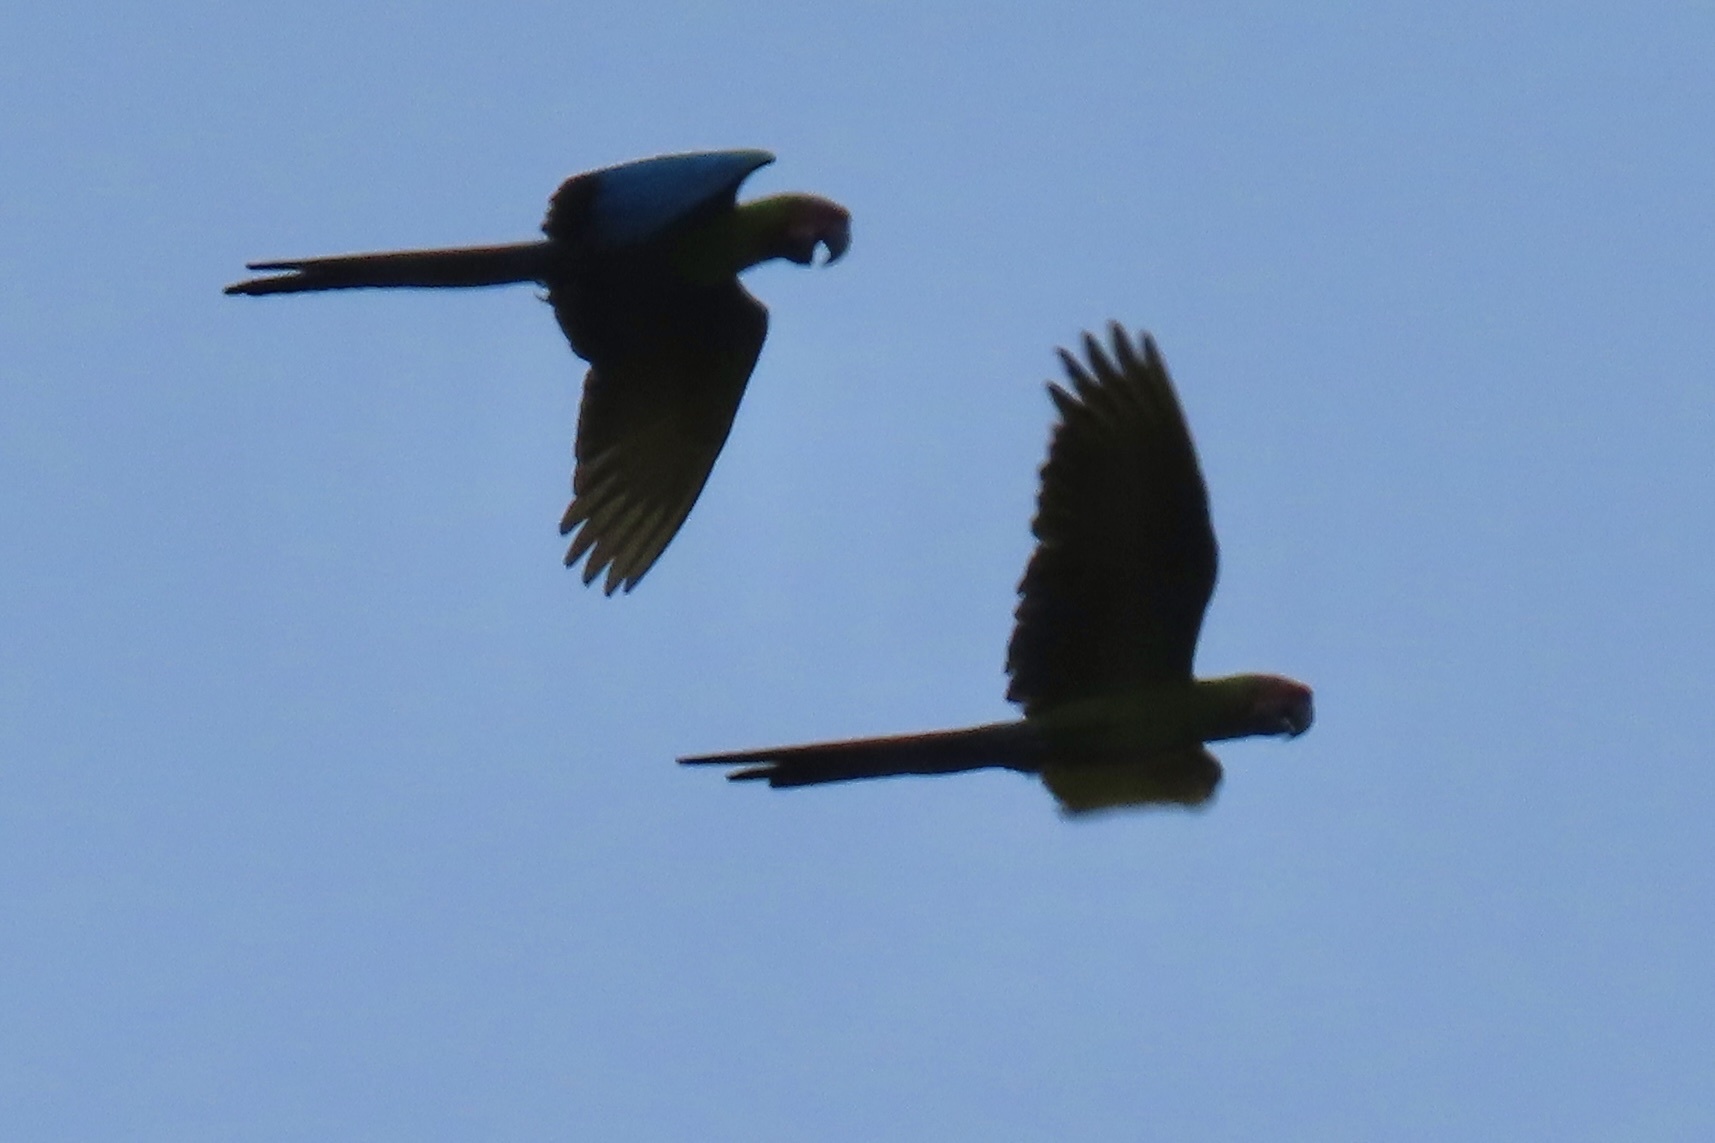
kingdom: Animalia
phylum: Chordata
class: Aves
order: Psittaciformes
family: Psittacidae
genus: Ara
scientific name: Ara ambiguus
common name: Great green macaw
